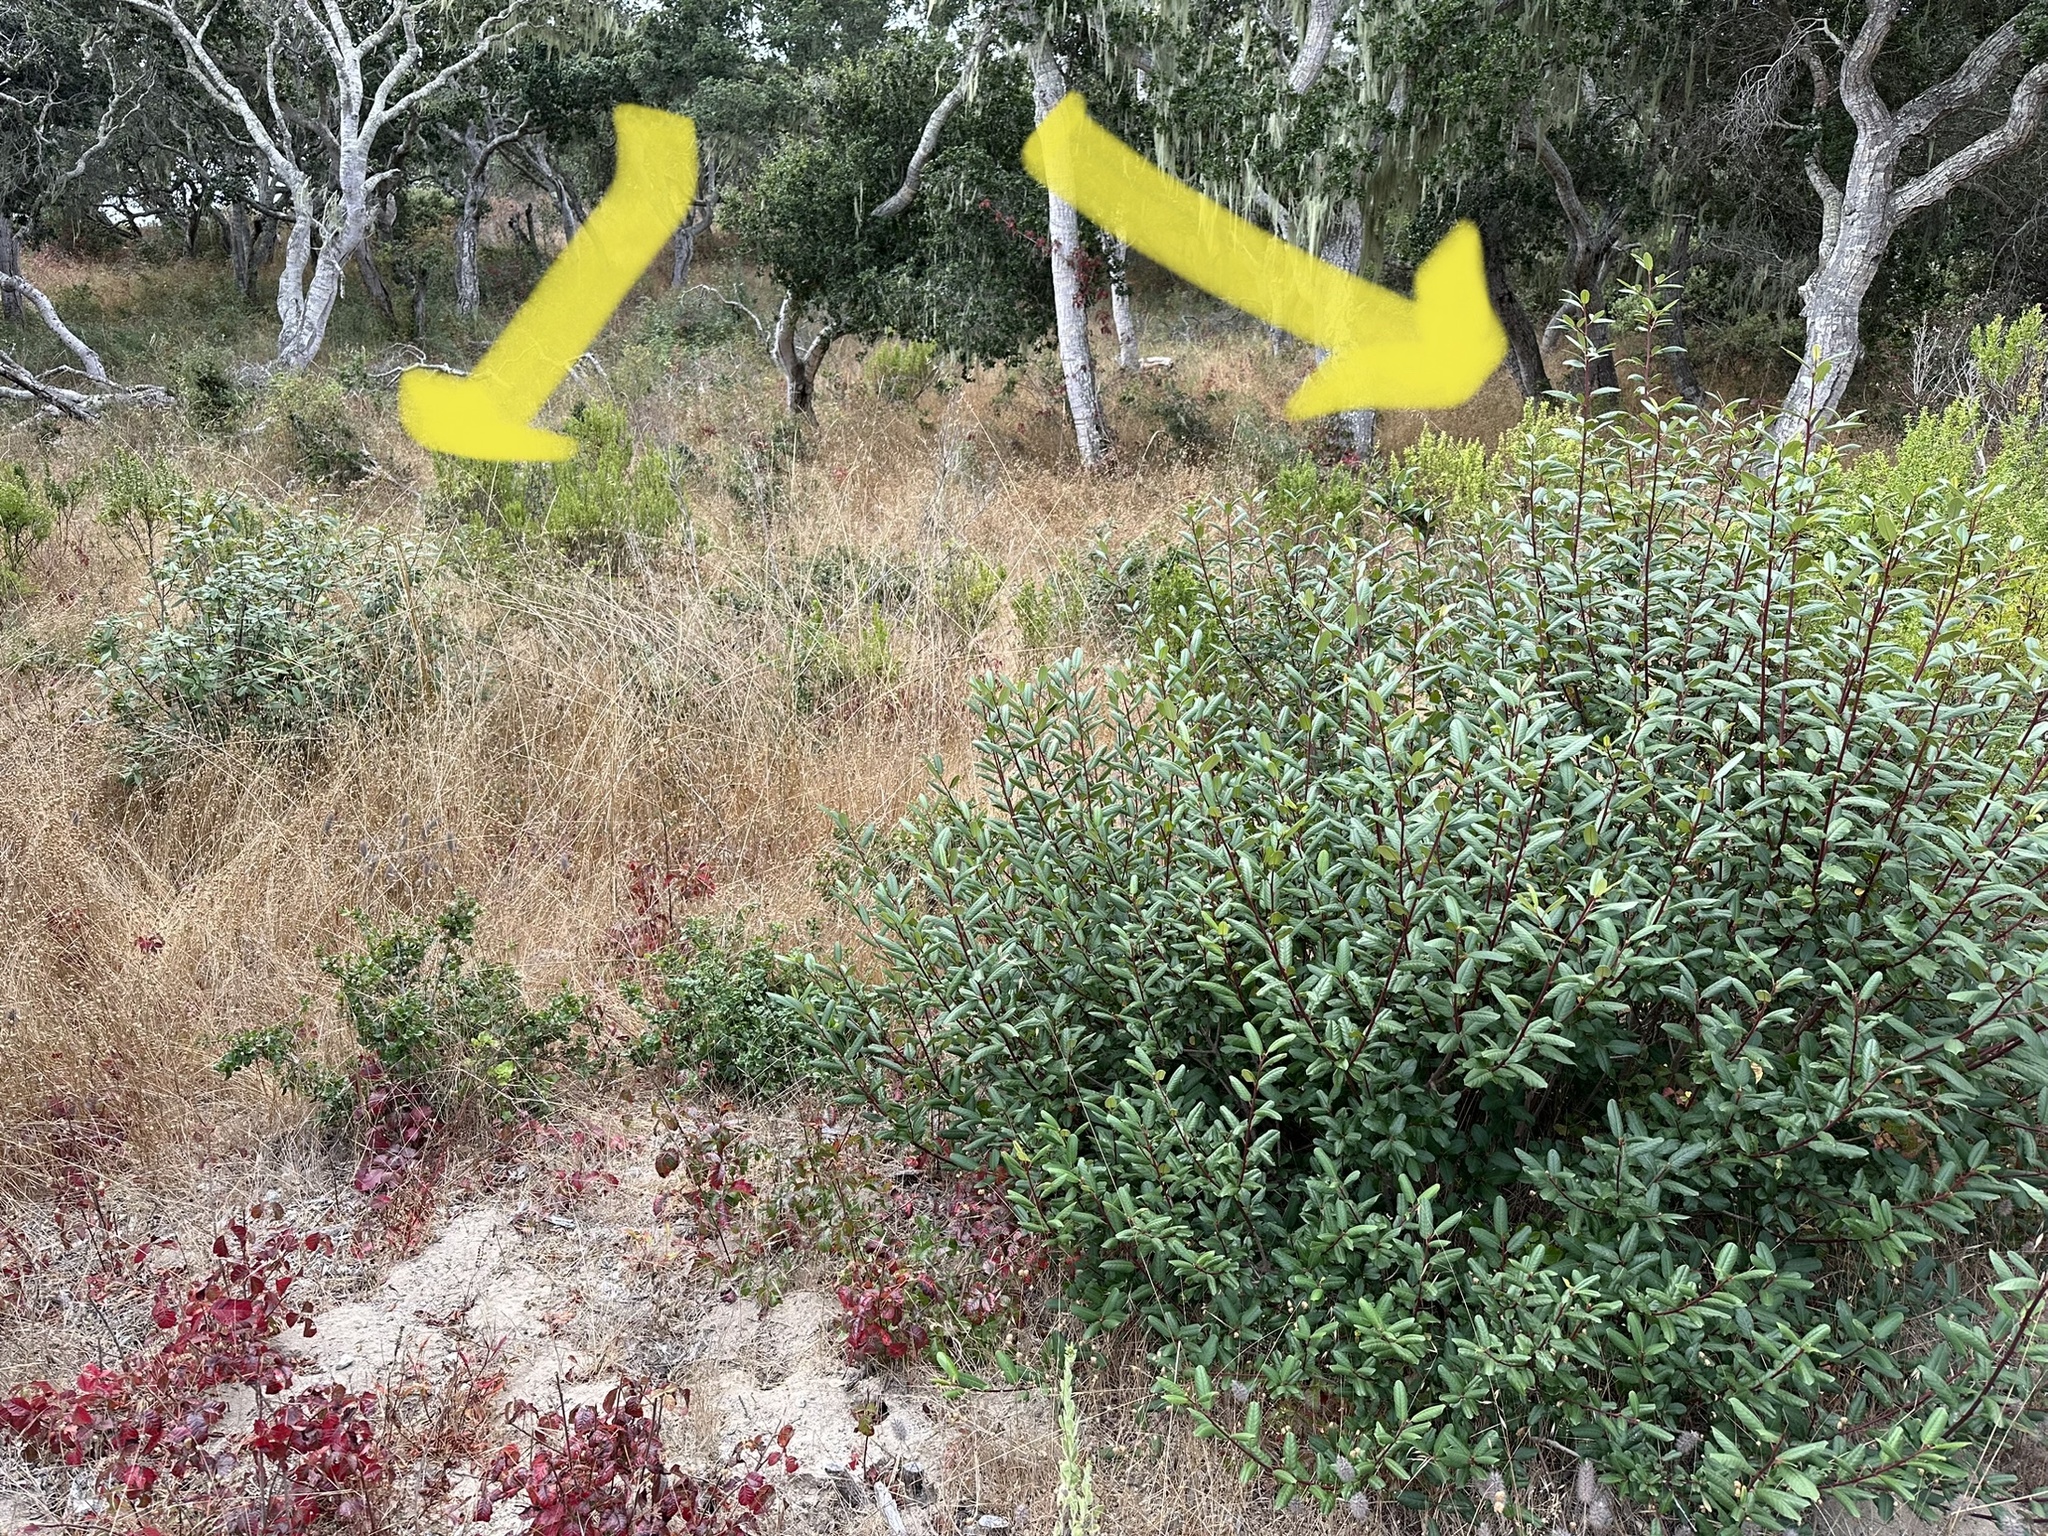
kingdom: Plantae
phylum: Tracheophyta
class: Magnoliopsida
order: Rosales
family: Rhamnaceae
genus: Frangula
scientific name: Frangula californica
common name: California buckthorn
